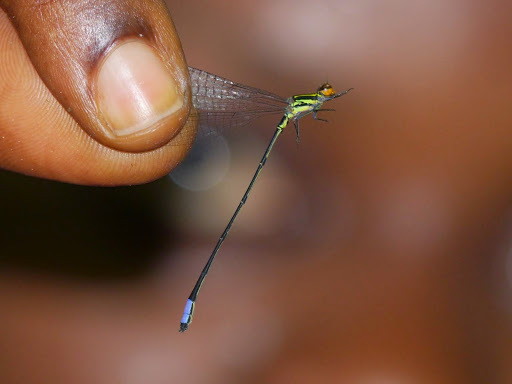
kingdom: Animalia
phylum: Arthropoda
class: Insecta
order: Odonata
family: Coenagrionidae
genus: Pseudagrion
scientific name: Pseudagrion hageni
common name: Painted sprite
